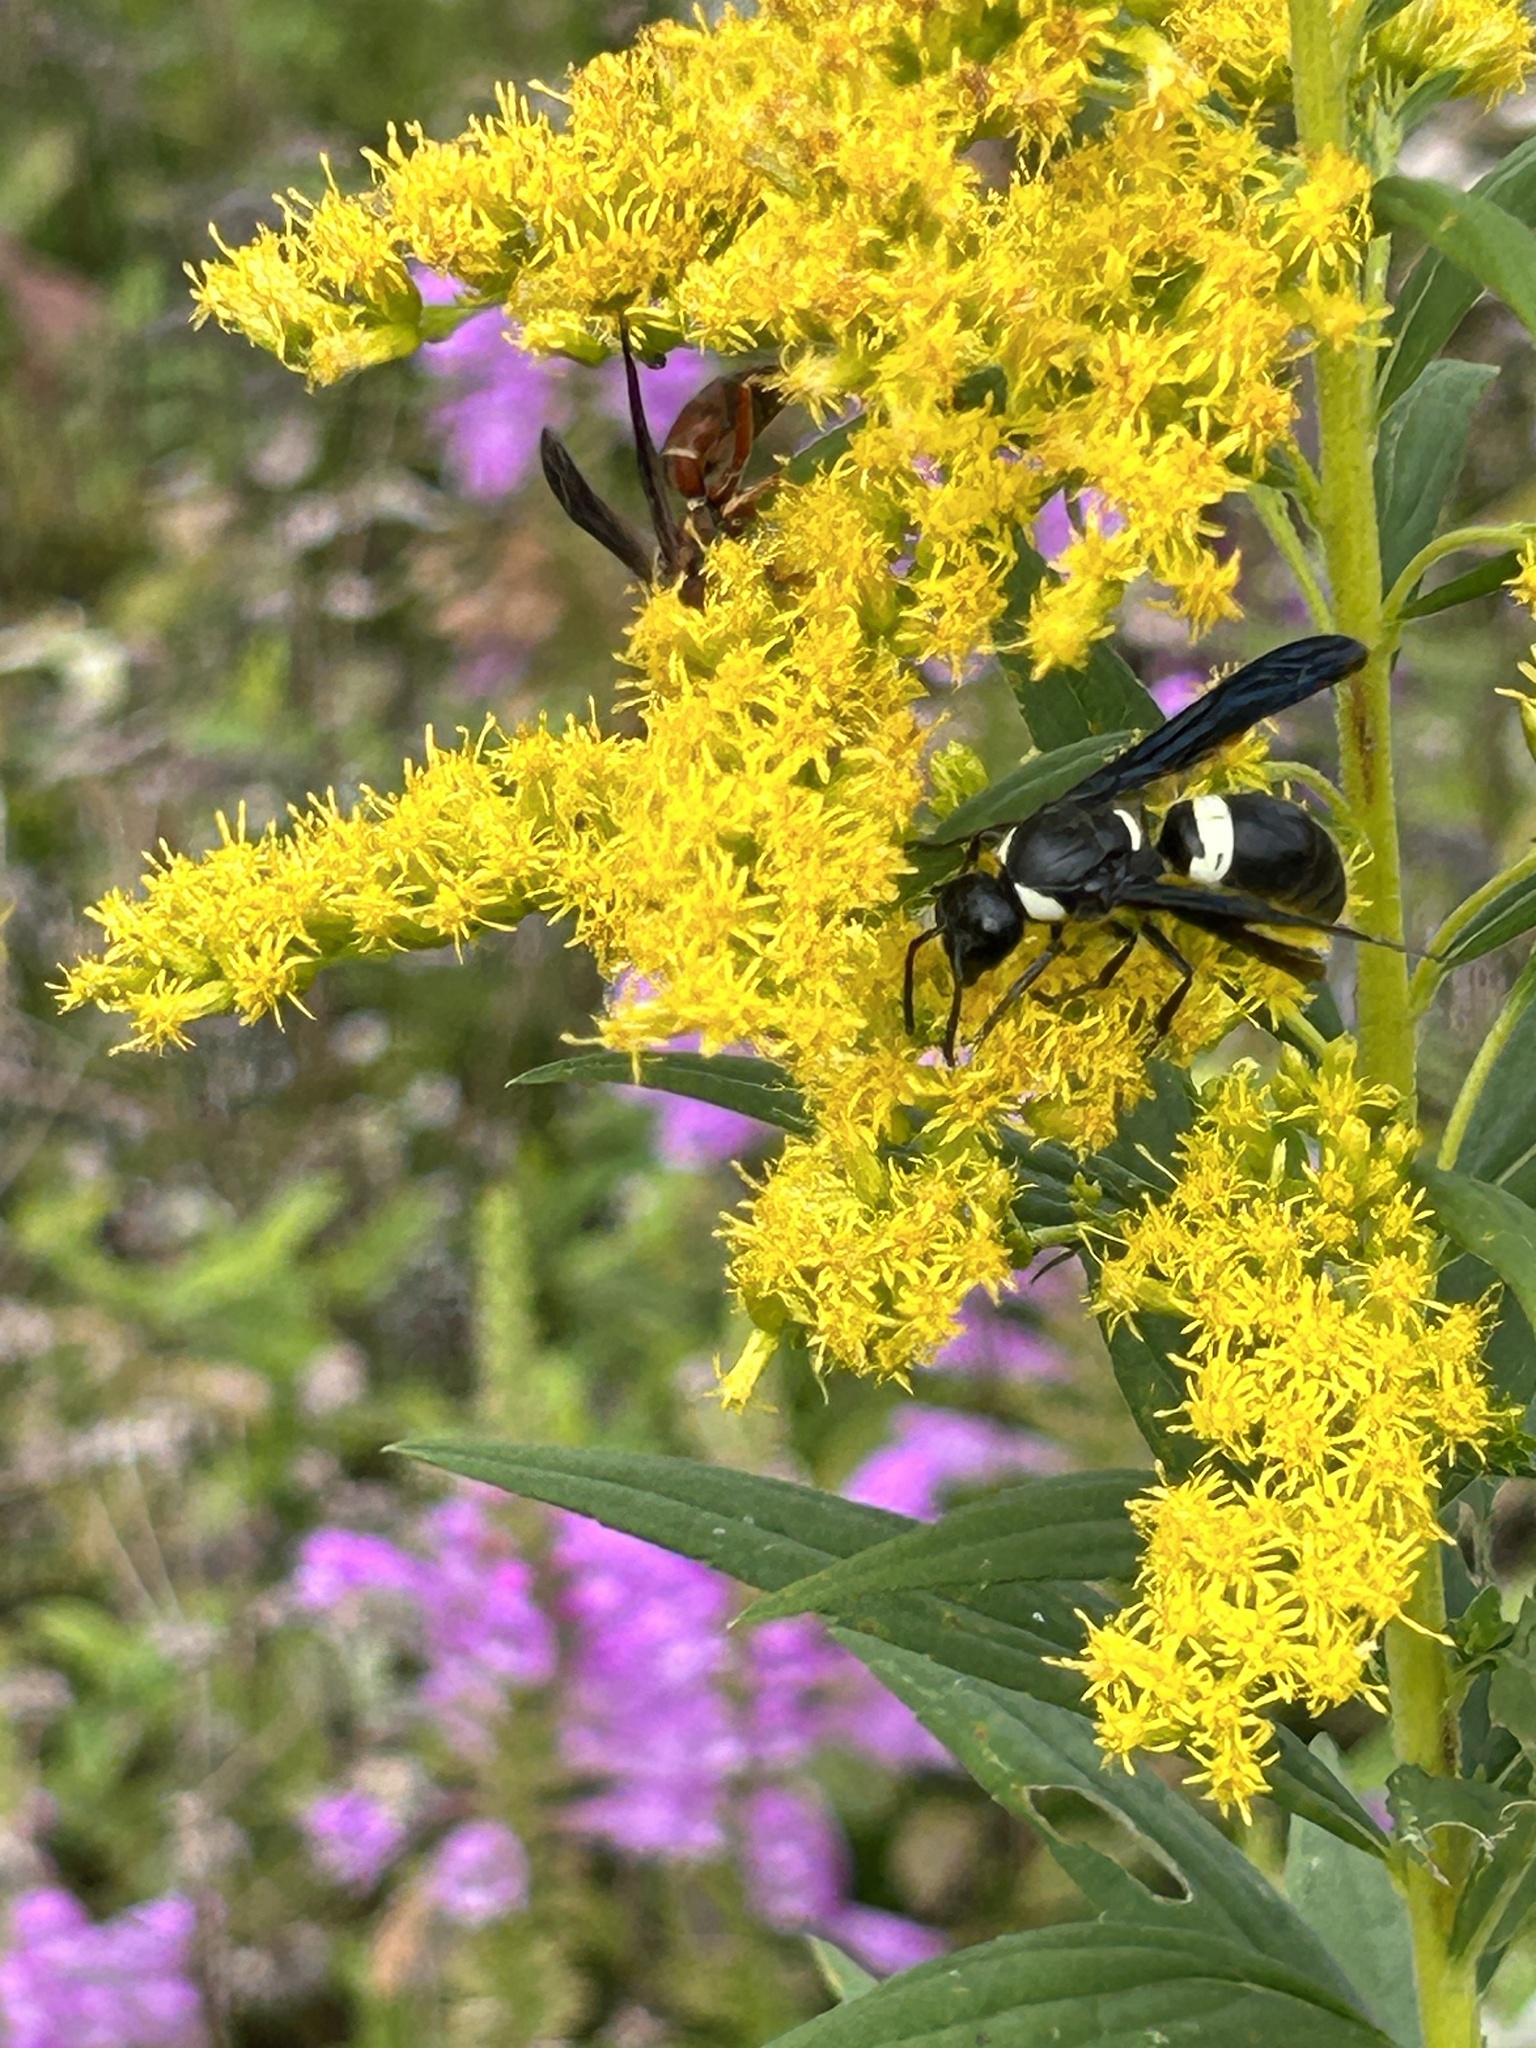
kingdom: Animalia
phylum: Arthropoda
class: Insecta
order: Hymenoptera
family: Eumenidae
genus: Monobia
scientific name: Monobia quadridens
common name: Four-toothed mason wasp
